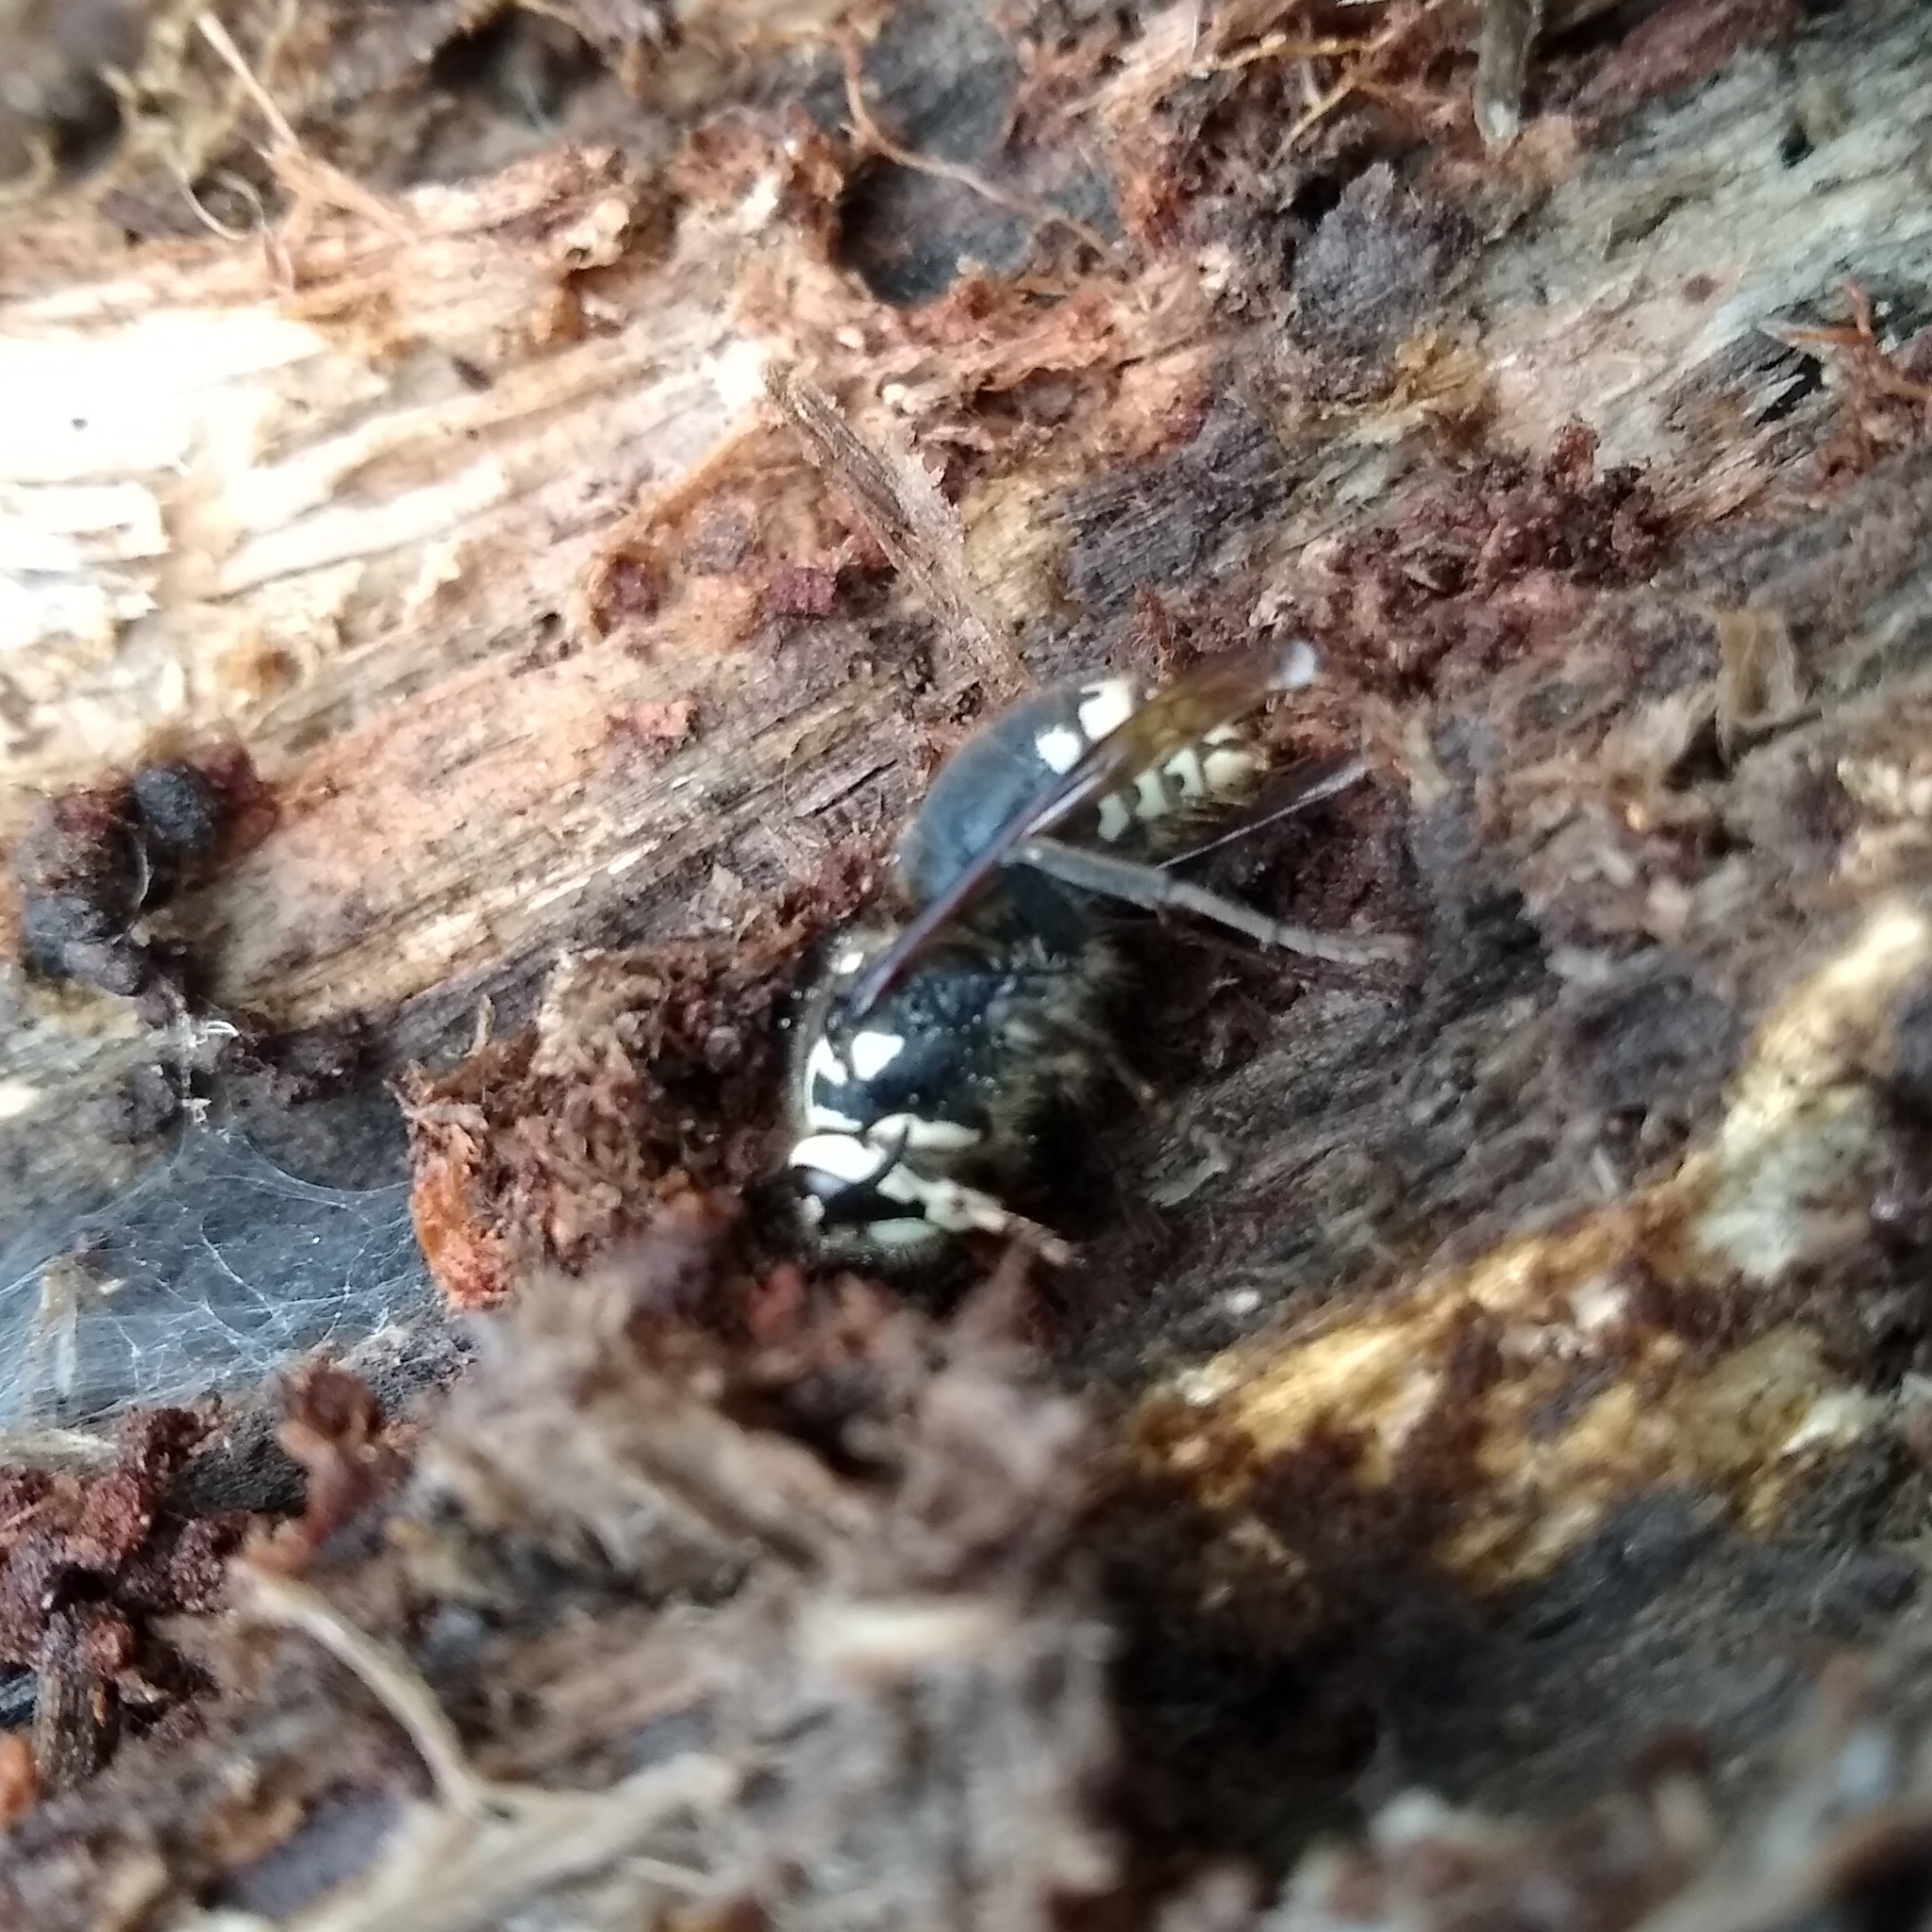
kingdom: Animalia
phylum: Arthropoda
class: Insecta
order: Hymenoptera
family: Vespidae
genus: Dolichovespula
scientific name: Dolichovespula maculata
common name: Bald-faced hornet
